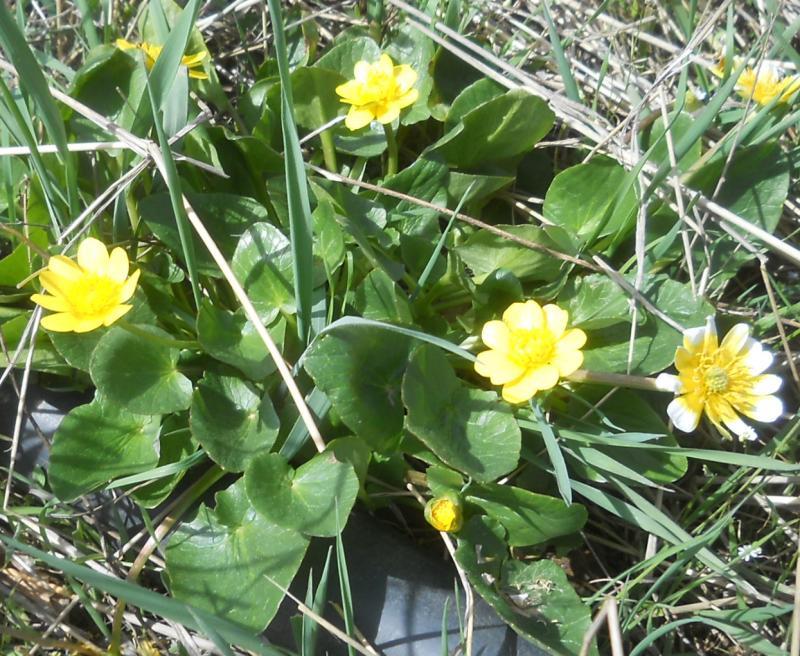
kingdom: Plantae
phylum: Tracheophyta
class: Magnoliopsida
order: Ranunculales
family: Ranunculaceae
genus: Ficaria
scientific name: Ficaria verna
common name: Lesser celandine
